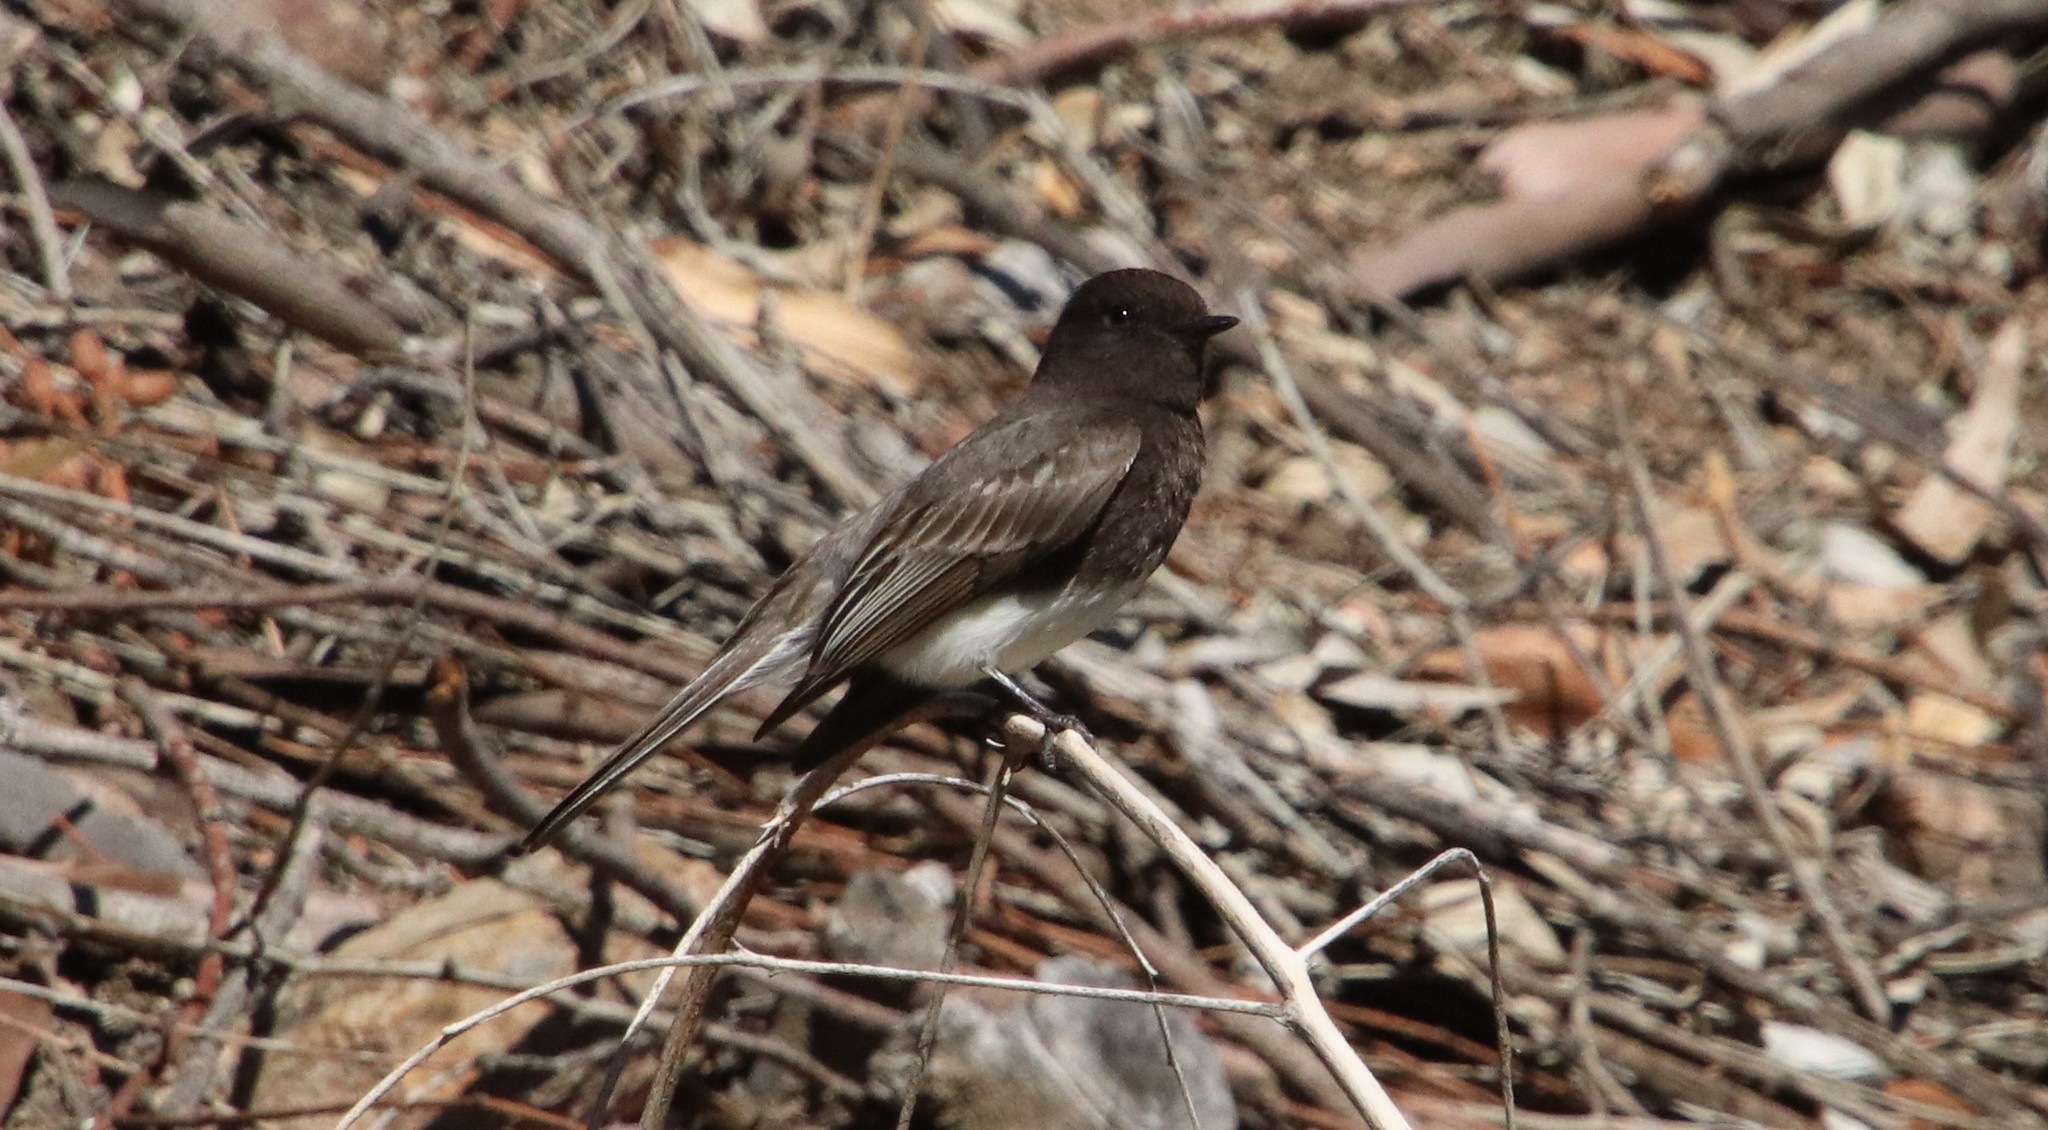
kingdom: Animalia
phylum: Chordata
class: Aves
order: Passeriformes
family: Tyrannidae
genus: Sayornis
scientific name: Sayornis nigricans
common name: Black phoebe
